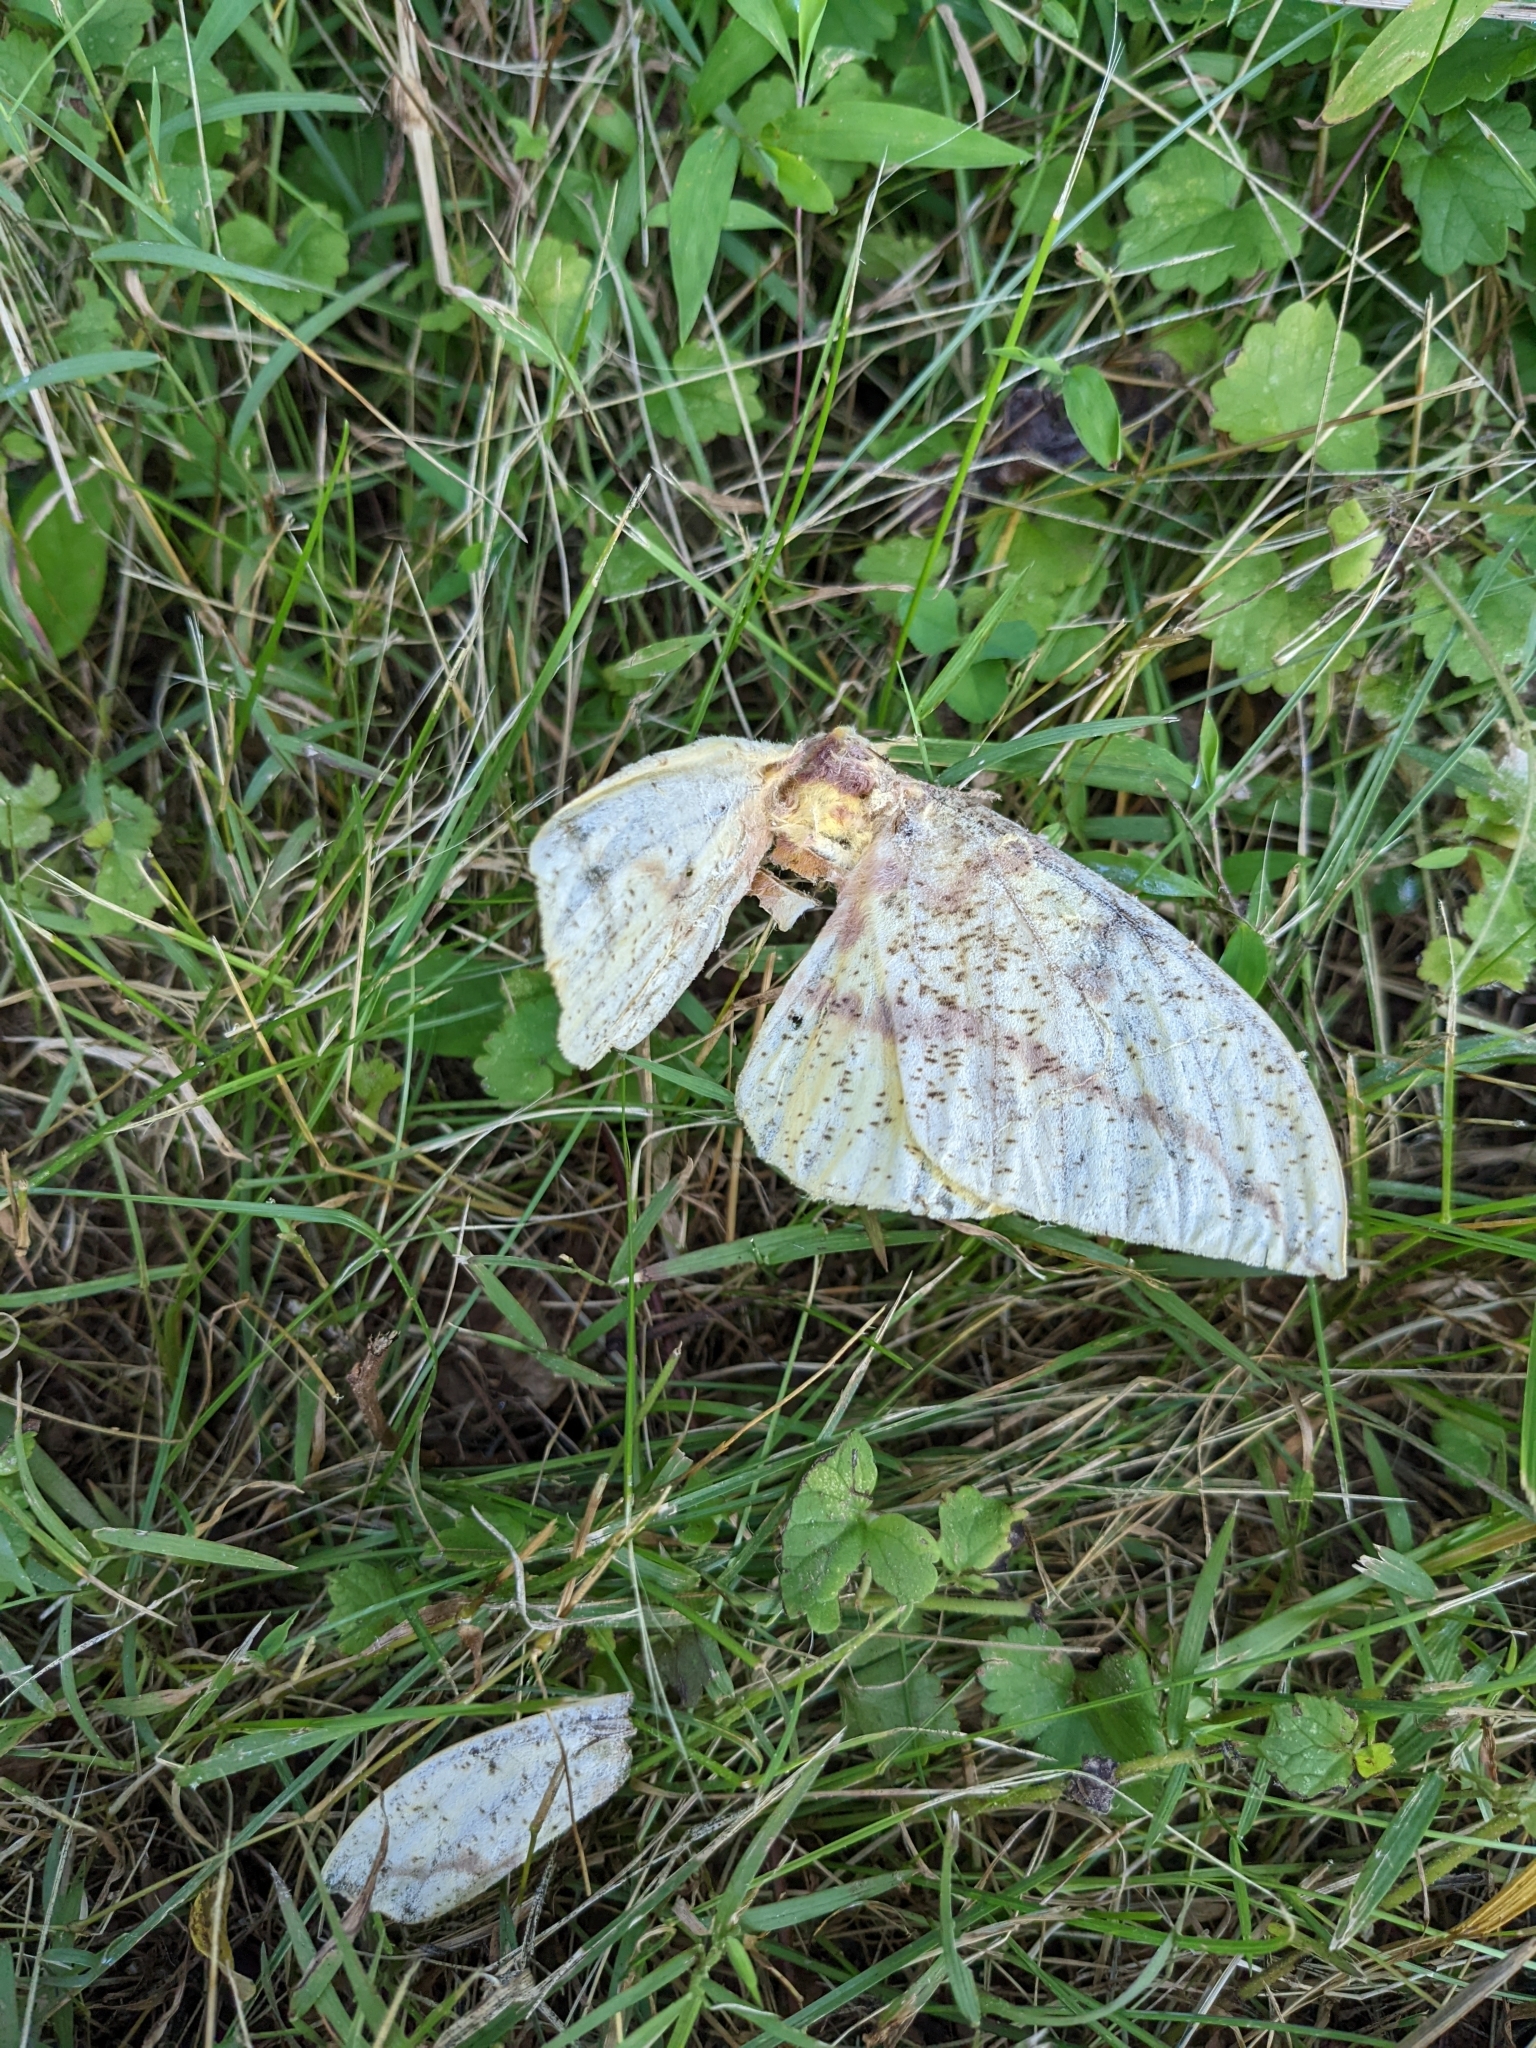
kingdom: Animalia
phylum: Arthropoda
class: Insecta
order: Lepidoptera
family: Saturniidae
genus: Eacles
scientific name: Eacles imperialis
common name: Imperial moth
